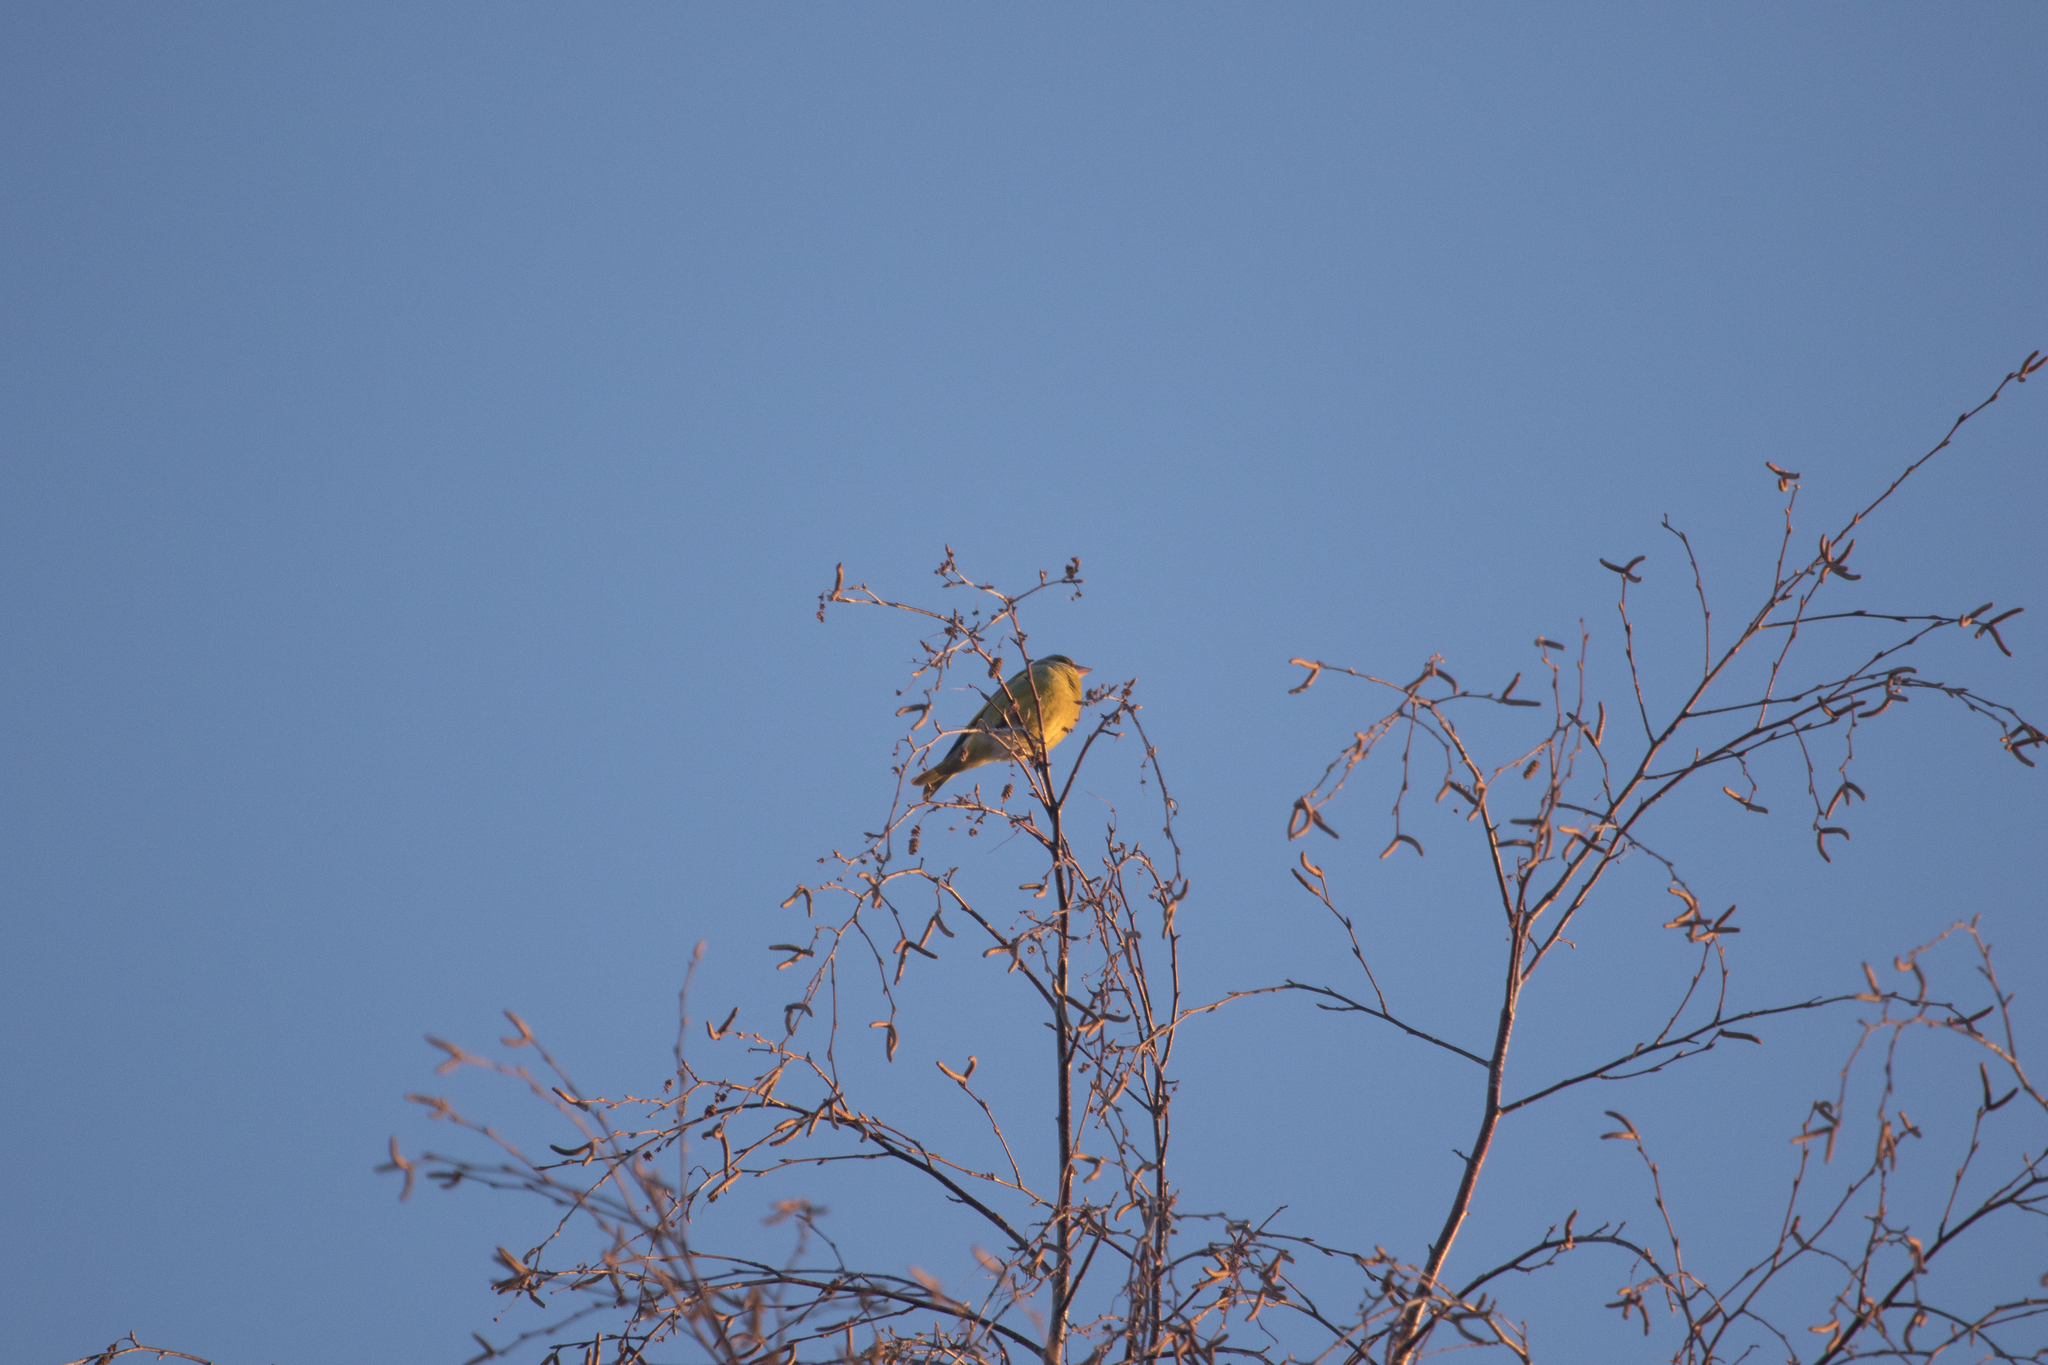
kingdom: Plantae
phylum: Tracheophyta
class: Liliopsida
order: Poales
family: Poaceae
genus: Chloris
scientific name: Chloris chloris
